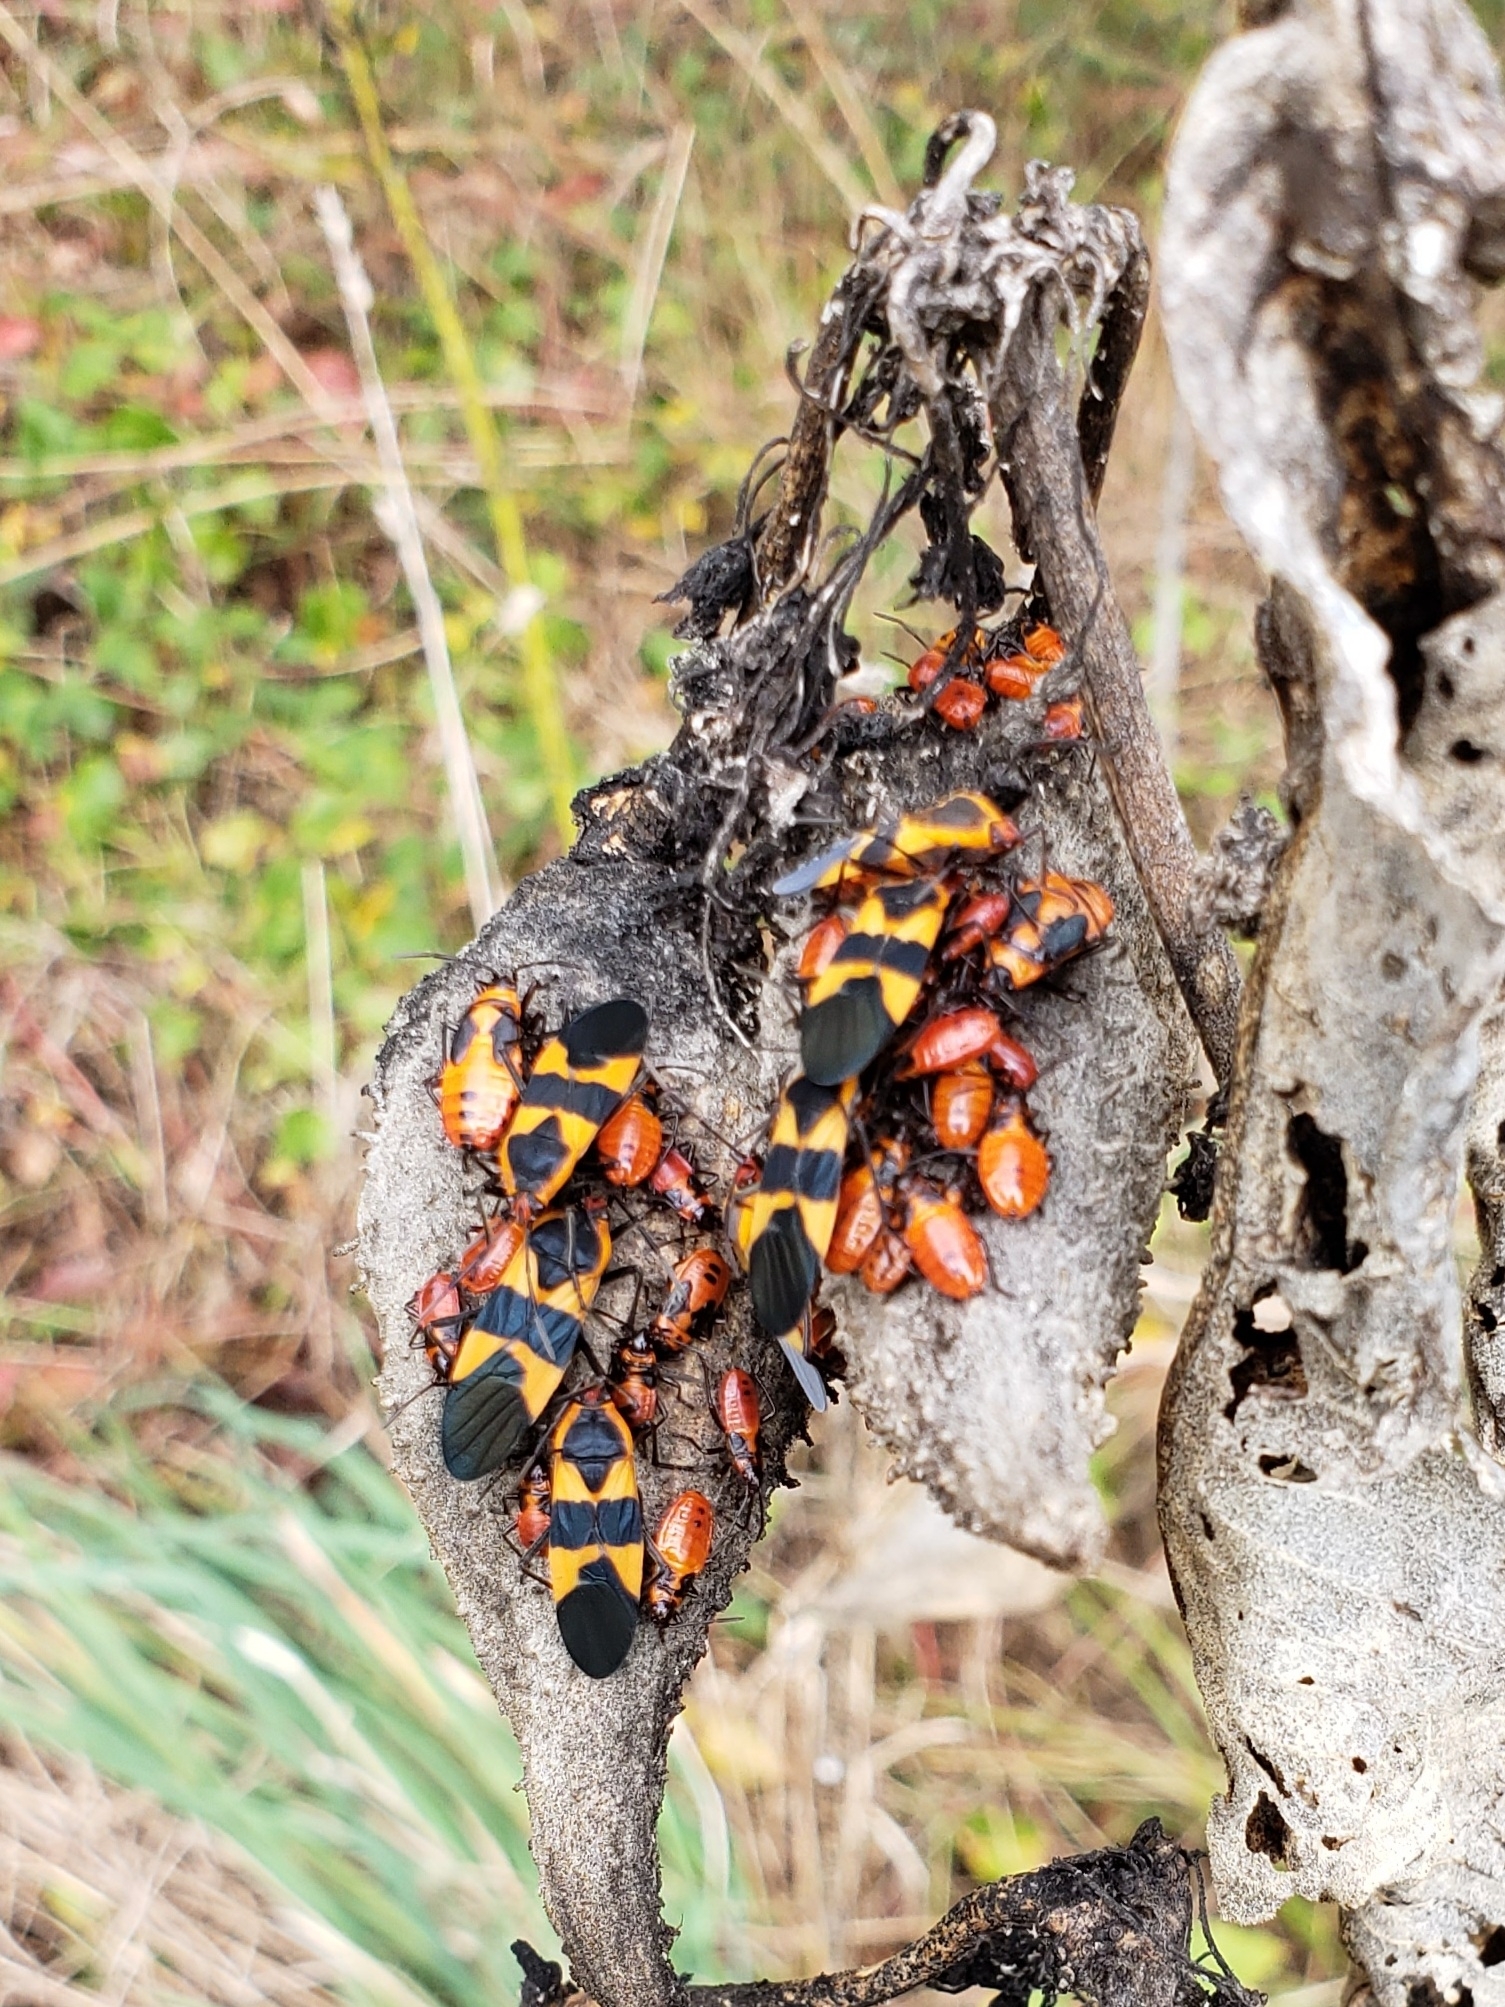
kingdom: Animalia
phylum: Arthropoda
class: Insecta
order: Hemiptera
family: Lygaeidae
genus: Oncopeltus
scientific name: Oncopeltus fasciatus
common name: Large milkweed bug
